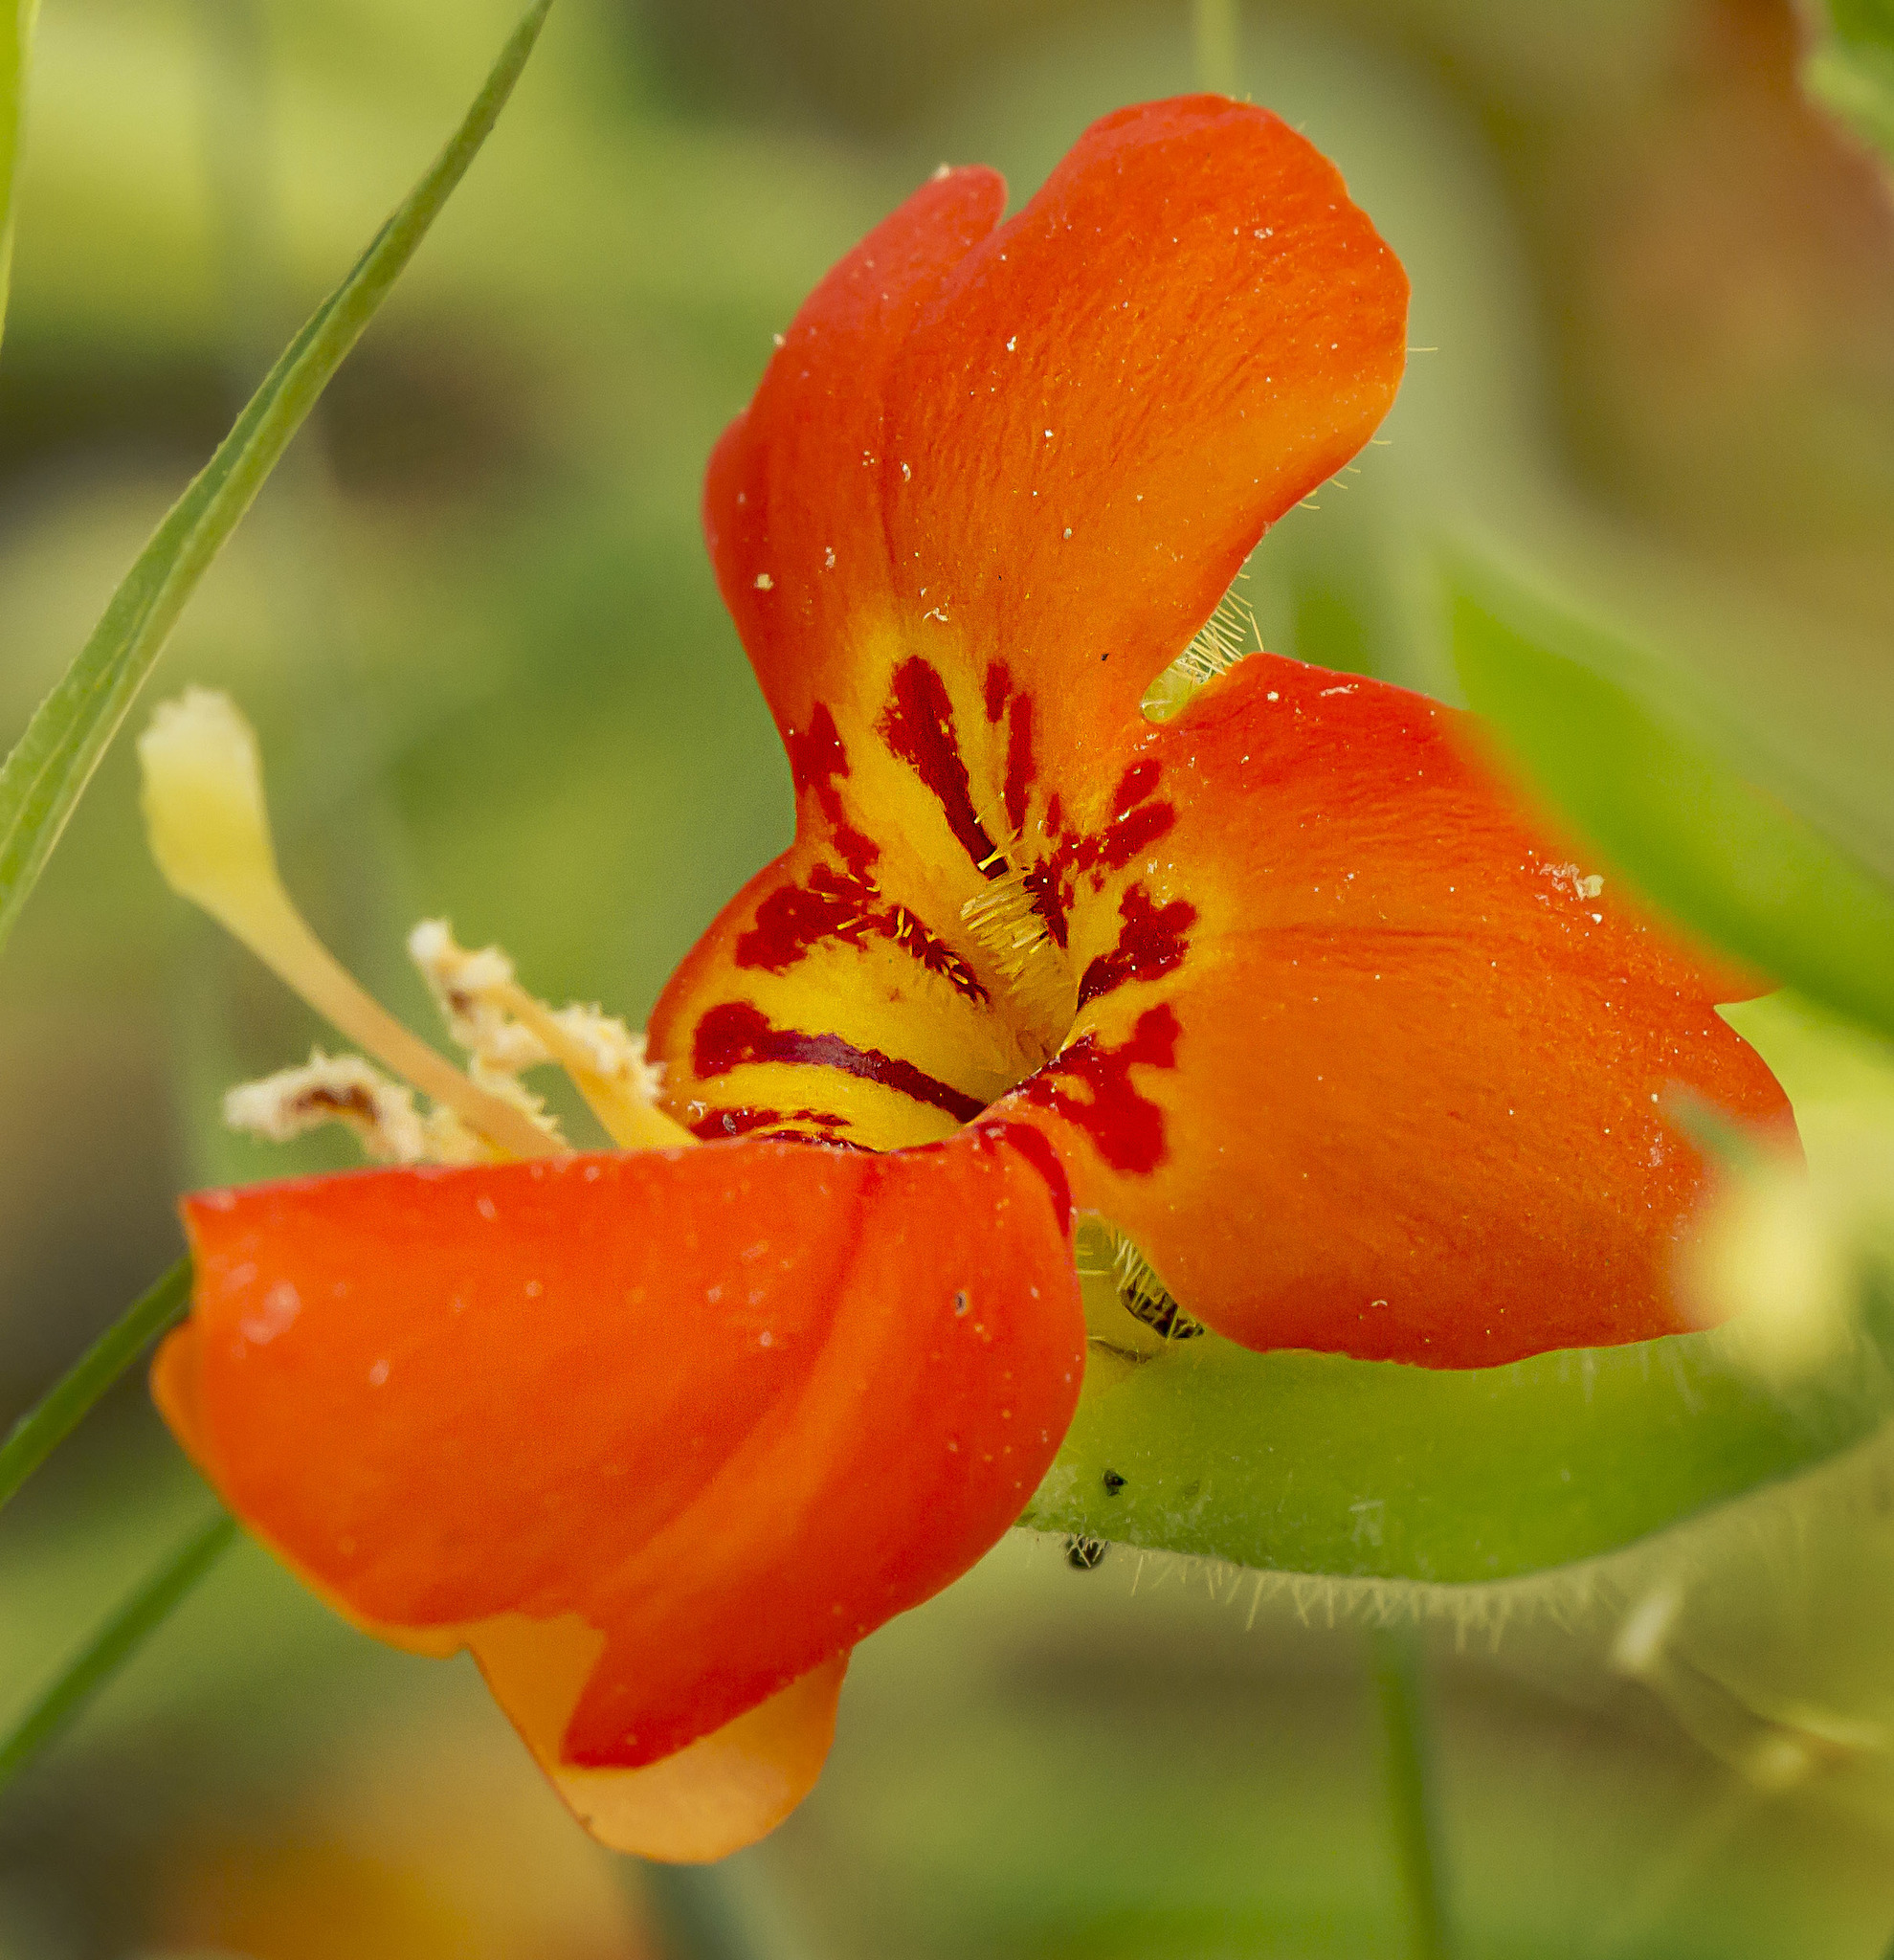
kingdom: Plantae
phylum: Tracheophyta
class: Magnoliopsida
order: Lamiales
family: Phrymaceae
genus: Erythranthe
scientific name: Erythranthe cardinalis
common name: Scarlet monkey-flower
